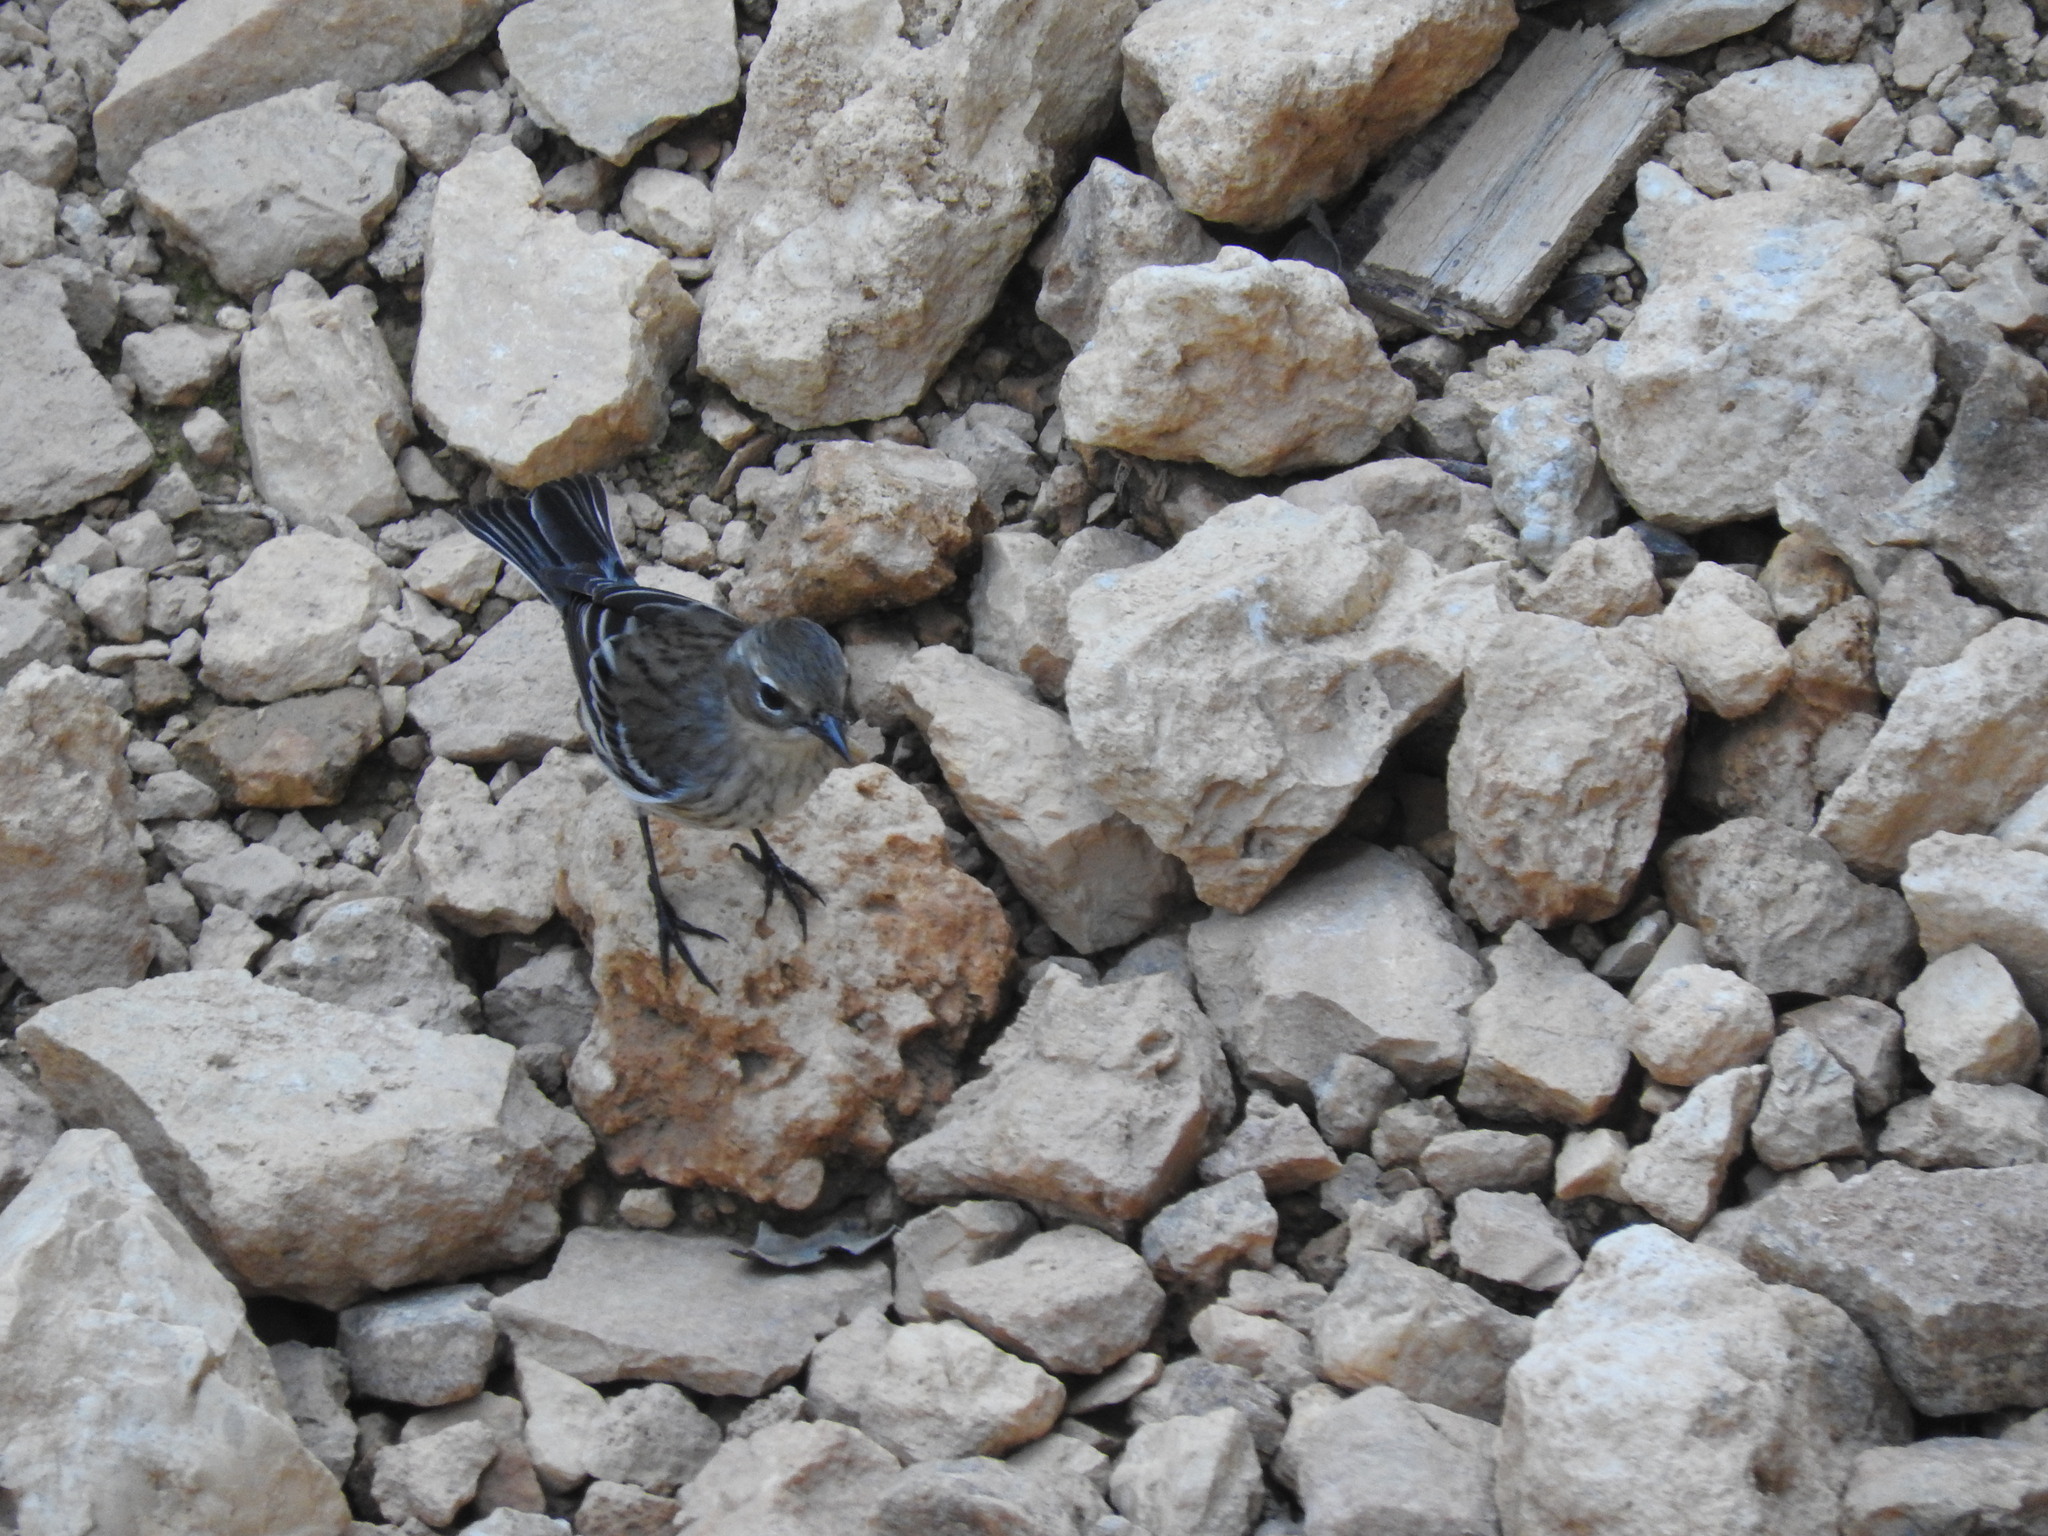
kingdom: Animalia
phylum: Chordata
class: Aves
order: Passeriformes
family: Parulidae
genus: Setophaga
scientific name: Setophaga coronata
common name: Myrtle warbler
